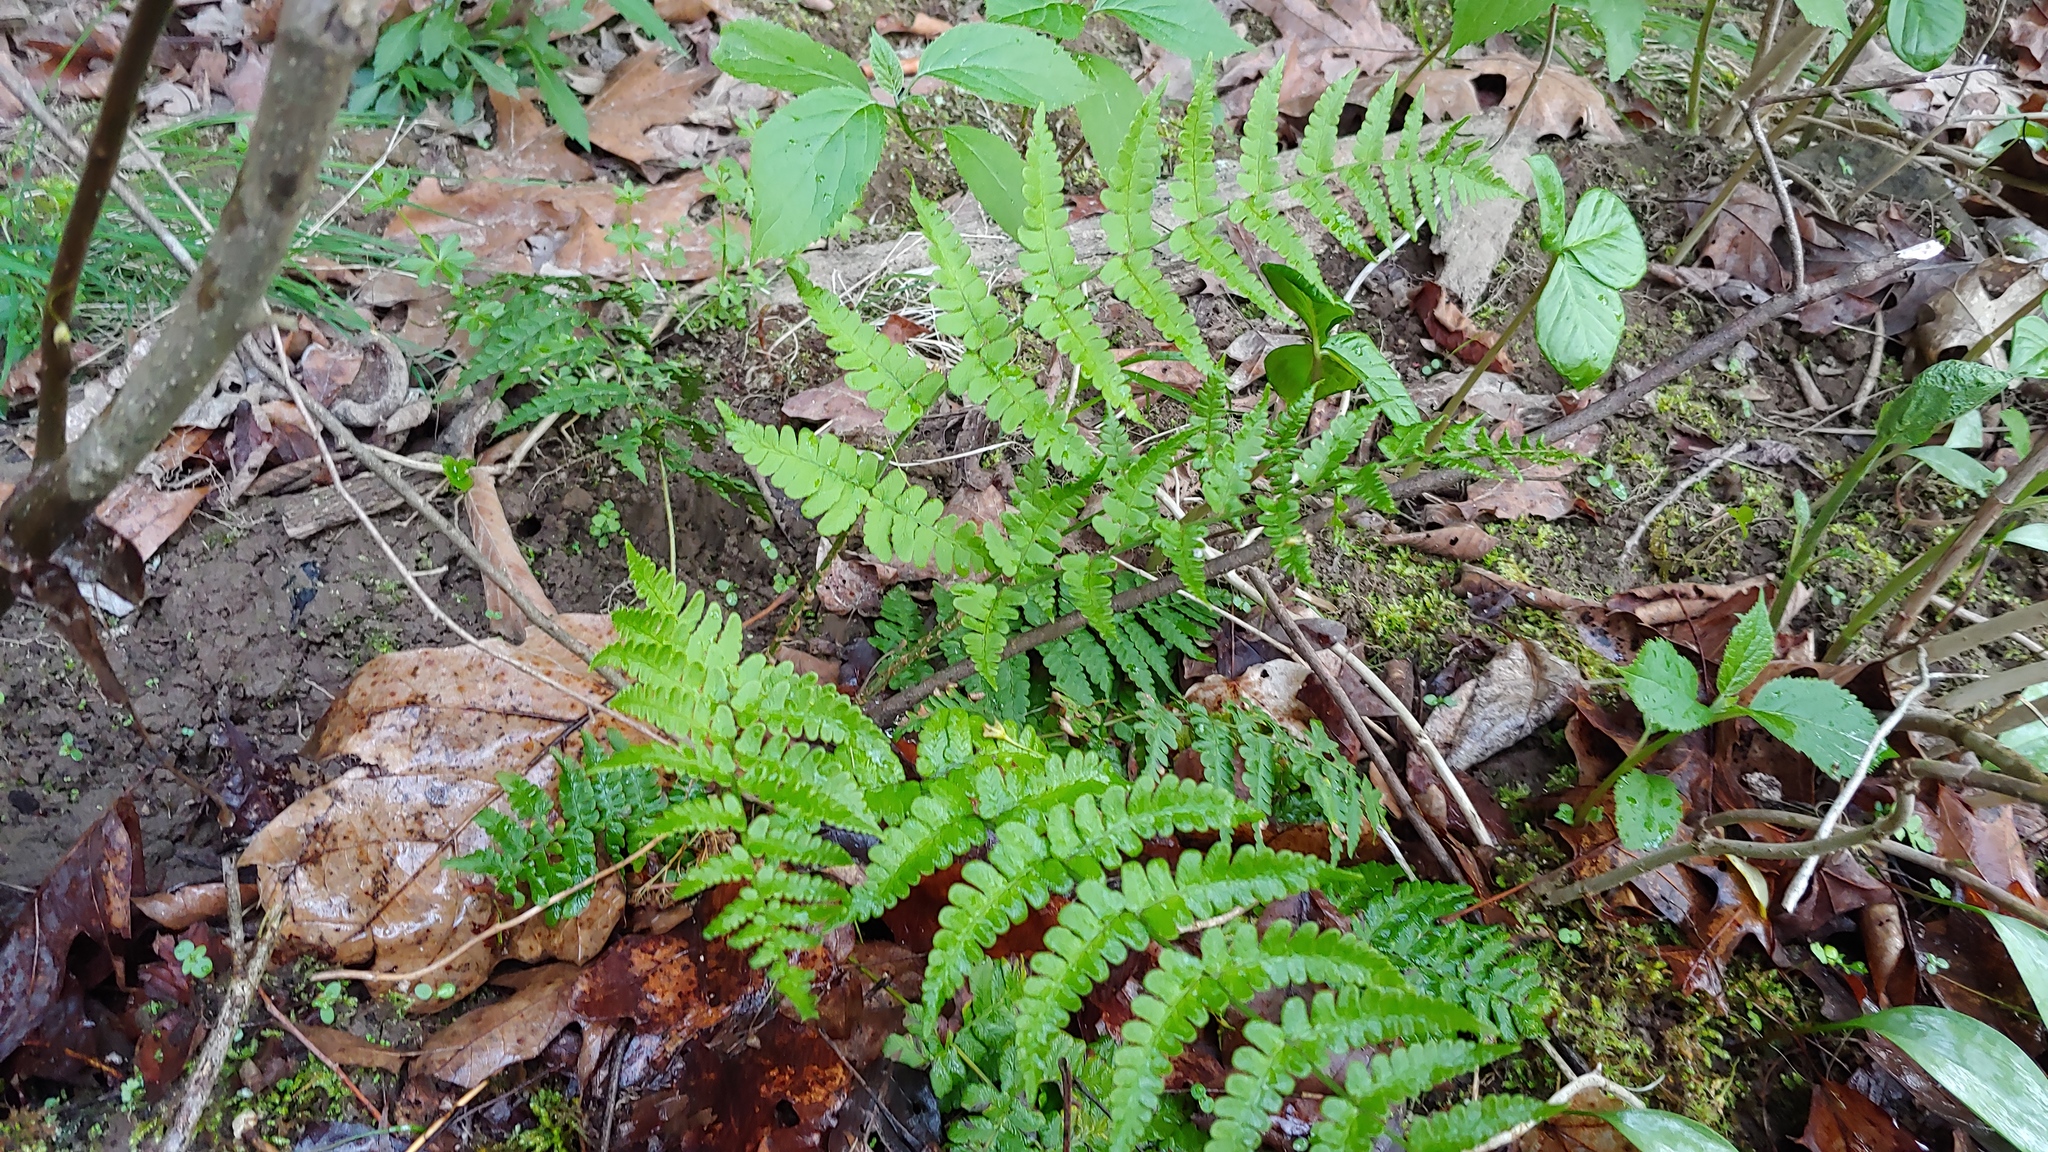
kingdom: Plantae
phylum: Tracheophyta
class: Polypodiopsida
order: Polypodiales
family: Dryopteridaceae
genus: Dryopteris
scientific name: Dryopteris marginalis
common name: Marginal wood fern
